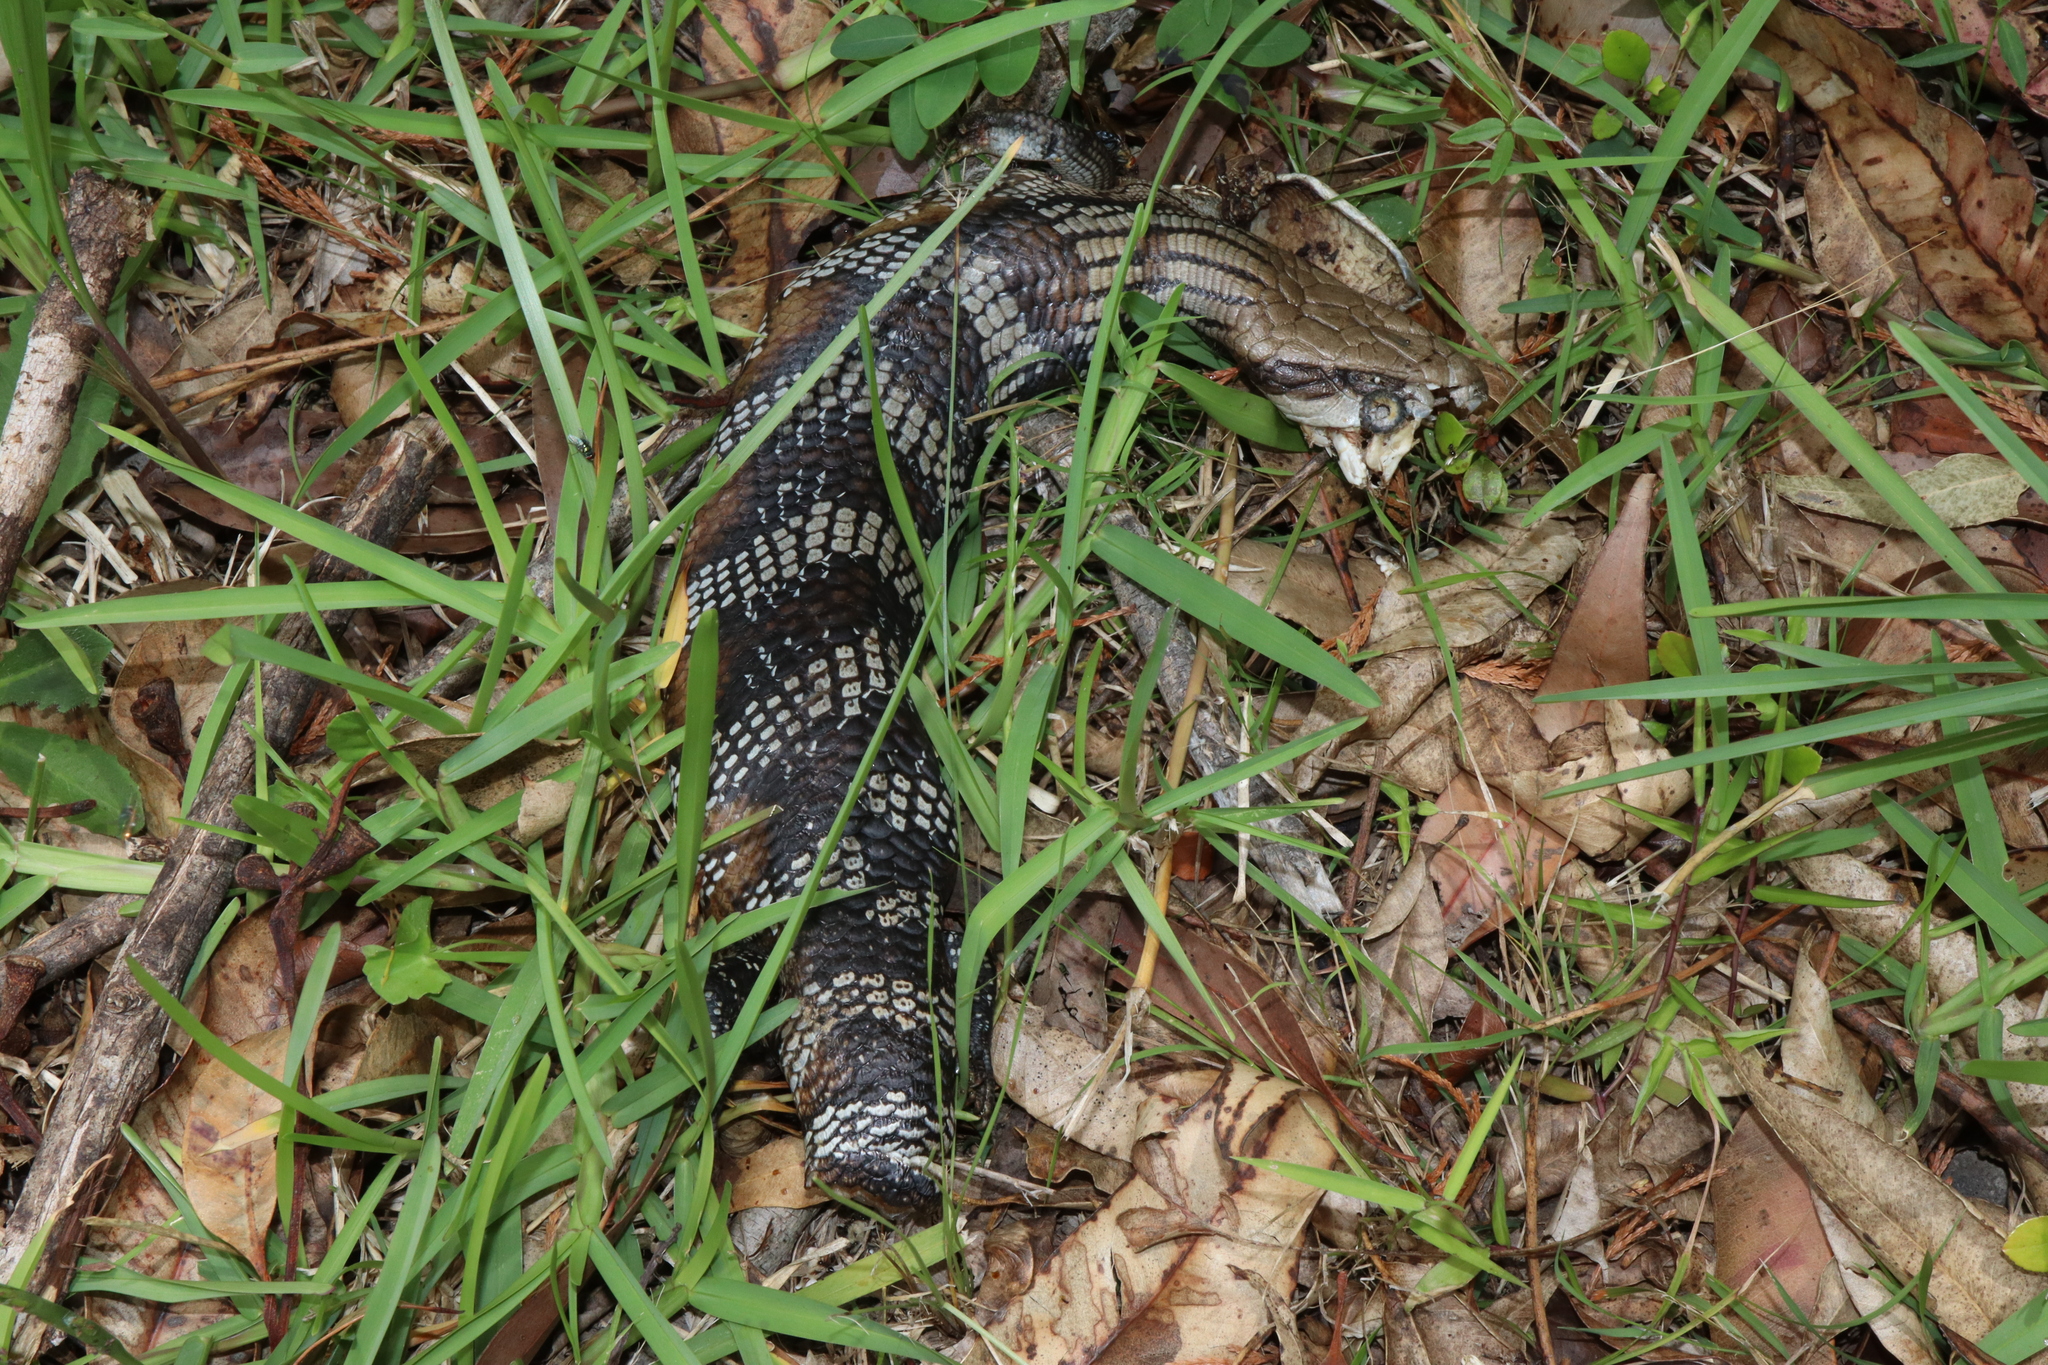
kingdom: Animalia
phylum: Chordata
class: Squamata
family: Scincidae
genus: Tiliqua
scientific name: Tiliqua scincoides
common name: Common bluetongue
